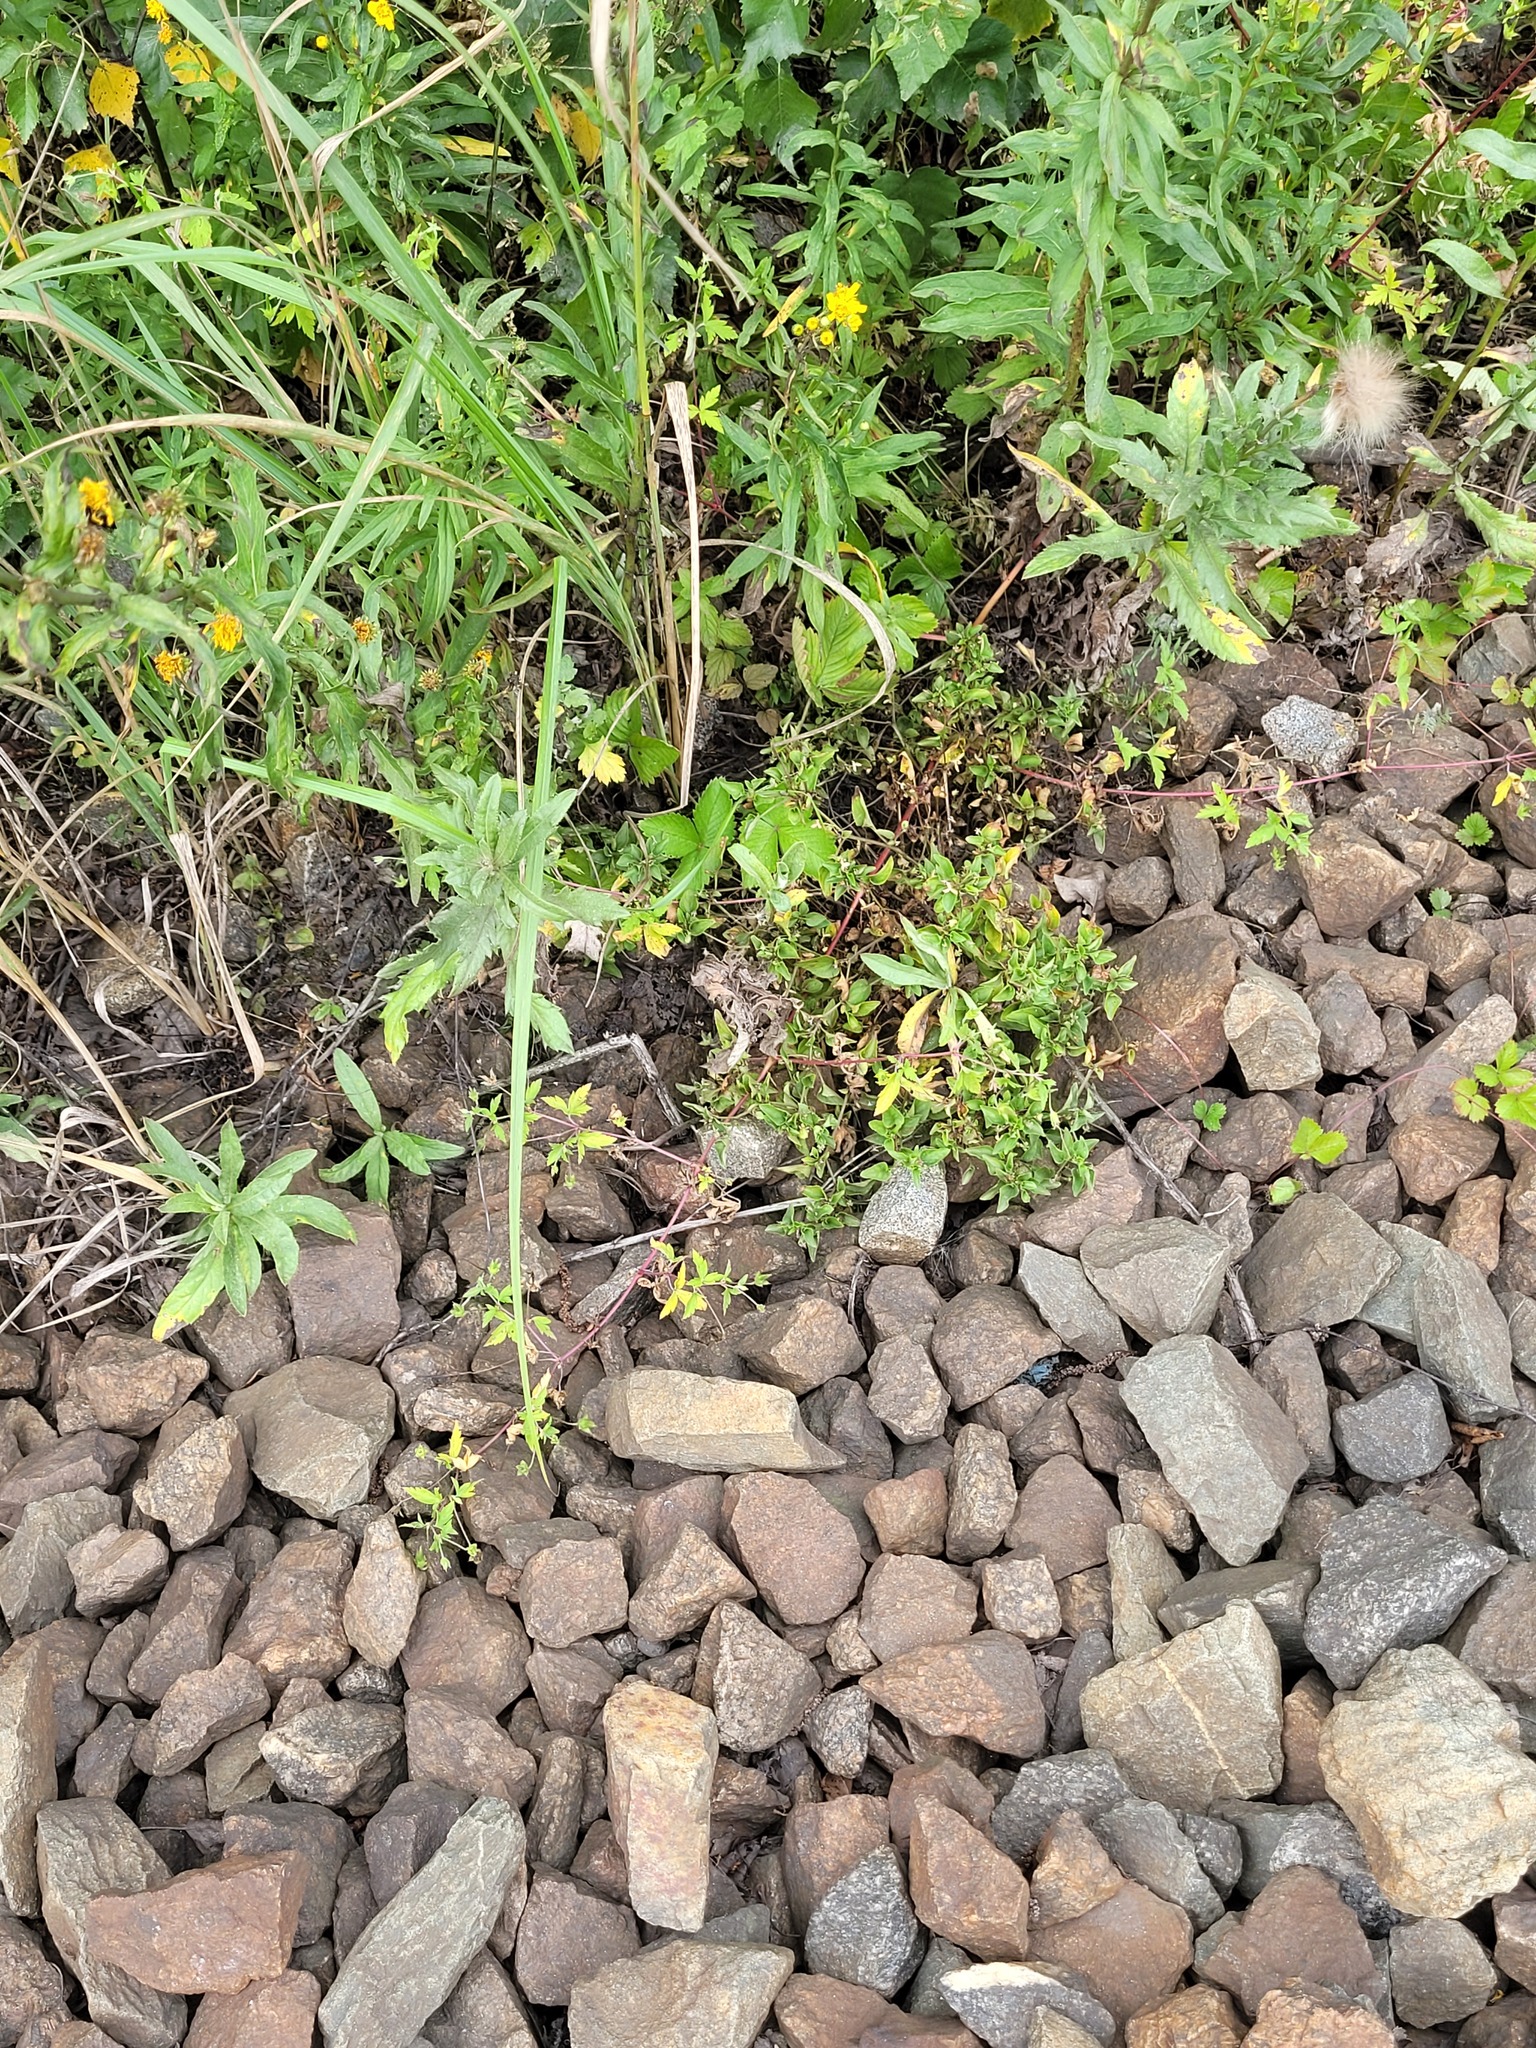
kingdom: Plantae
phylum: Tracheophyta
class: Magnoliopsida
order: Malpighiales
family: Violaceae
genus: Viola
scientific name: Viola canina
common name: Heath dog-violet
